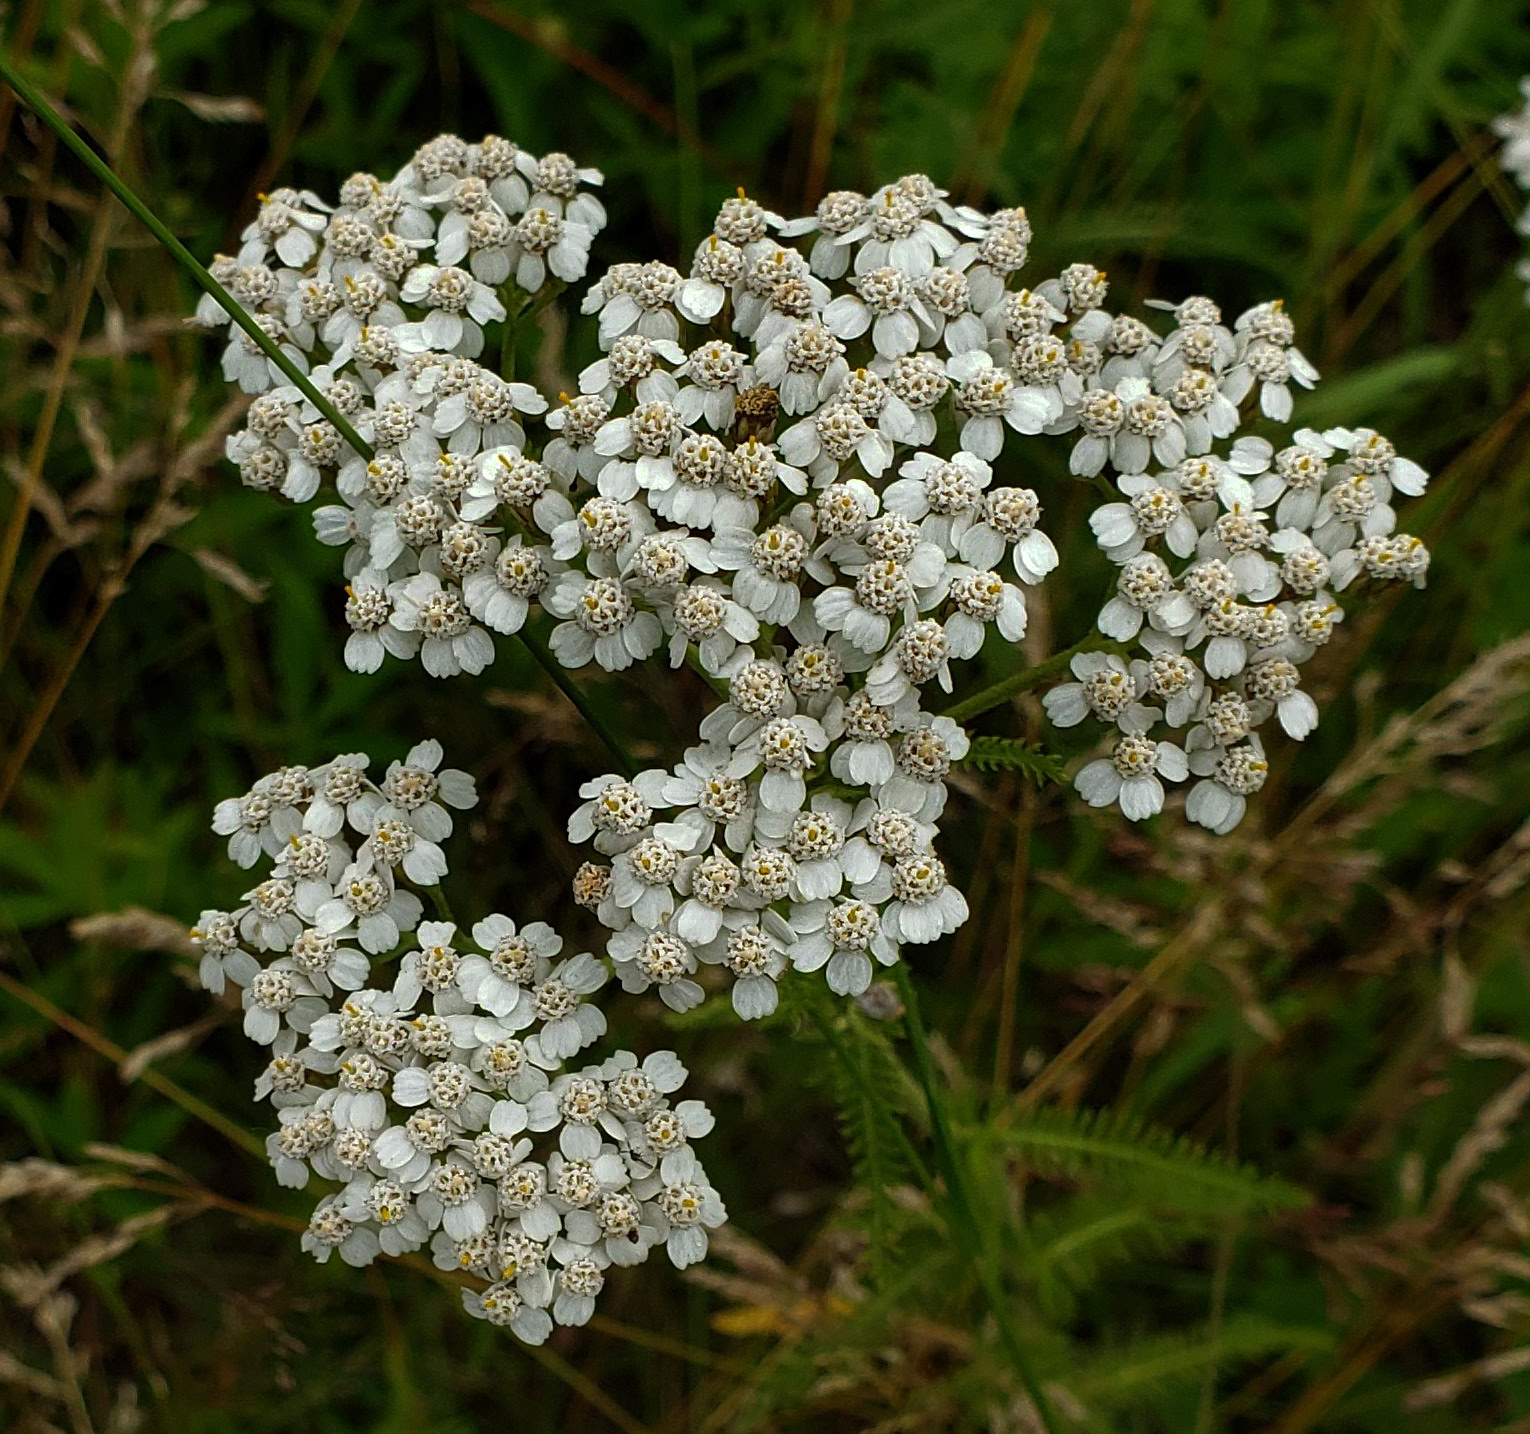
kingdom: Plantae
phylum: Tracheophyta
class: Magnoliopsida
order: Asterales
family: Asteraceae
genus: Achillea
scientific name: Achillea millefolium
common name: Yarrow
